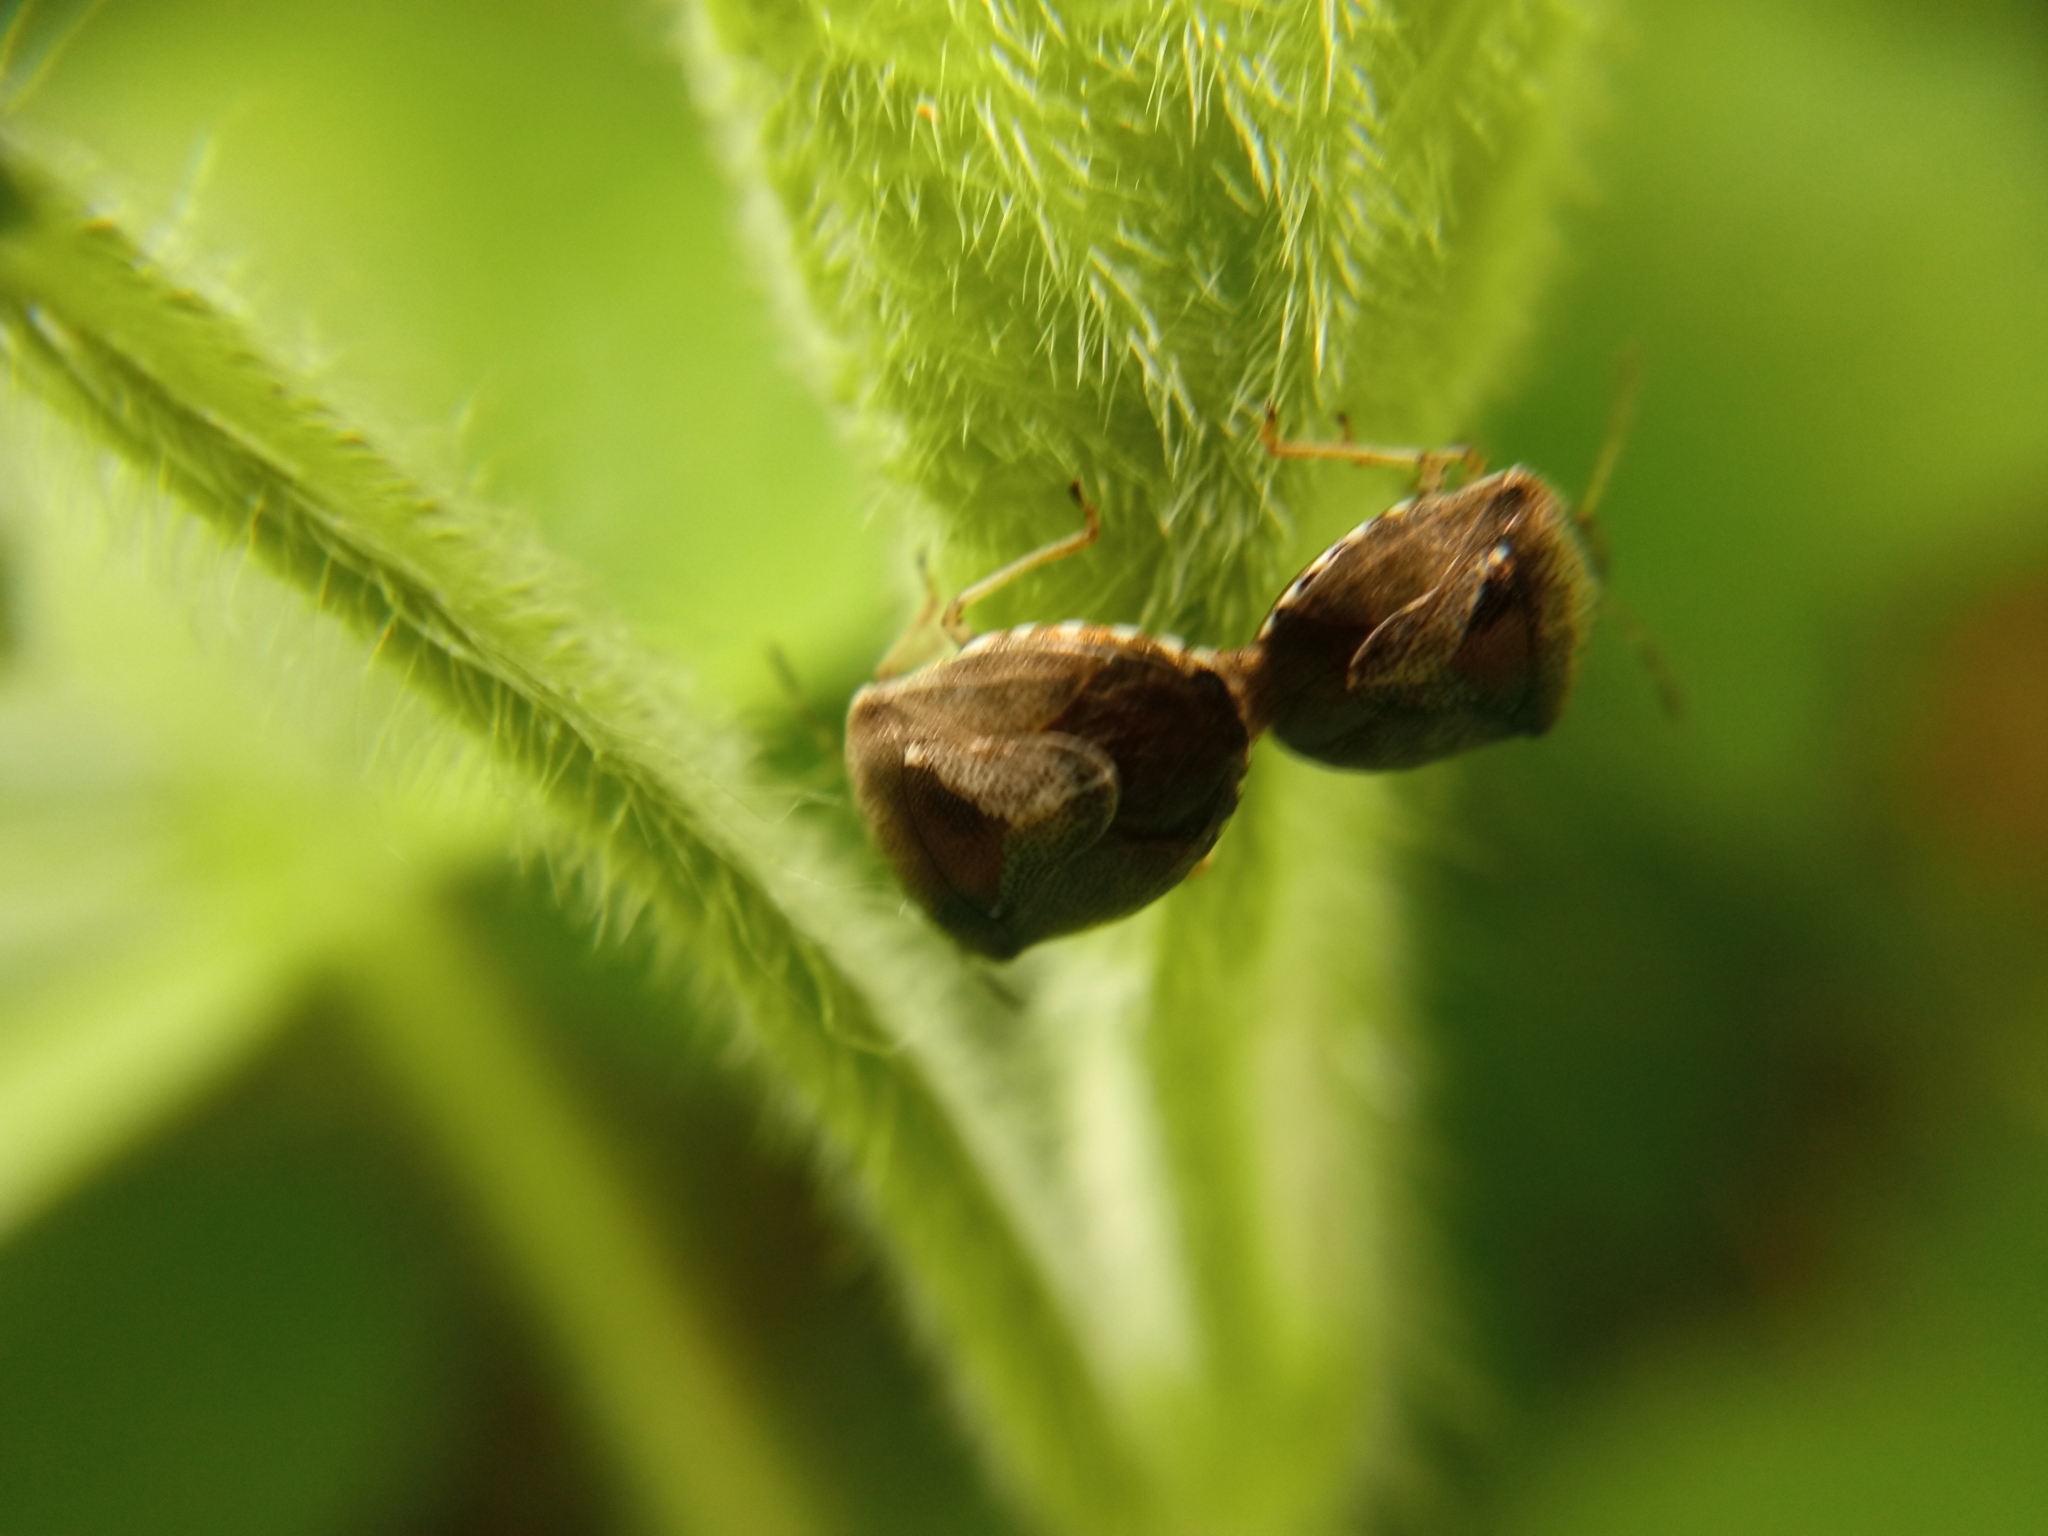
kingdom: Animalia
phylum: Arthropoda
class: Insecta
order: Hemiptera
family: Pentatomidae
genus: Eysarcoris
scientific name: Eysarcoris venustissimus
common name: Woundwort shieldbug
